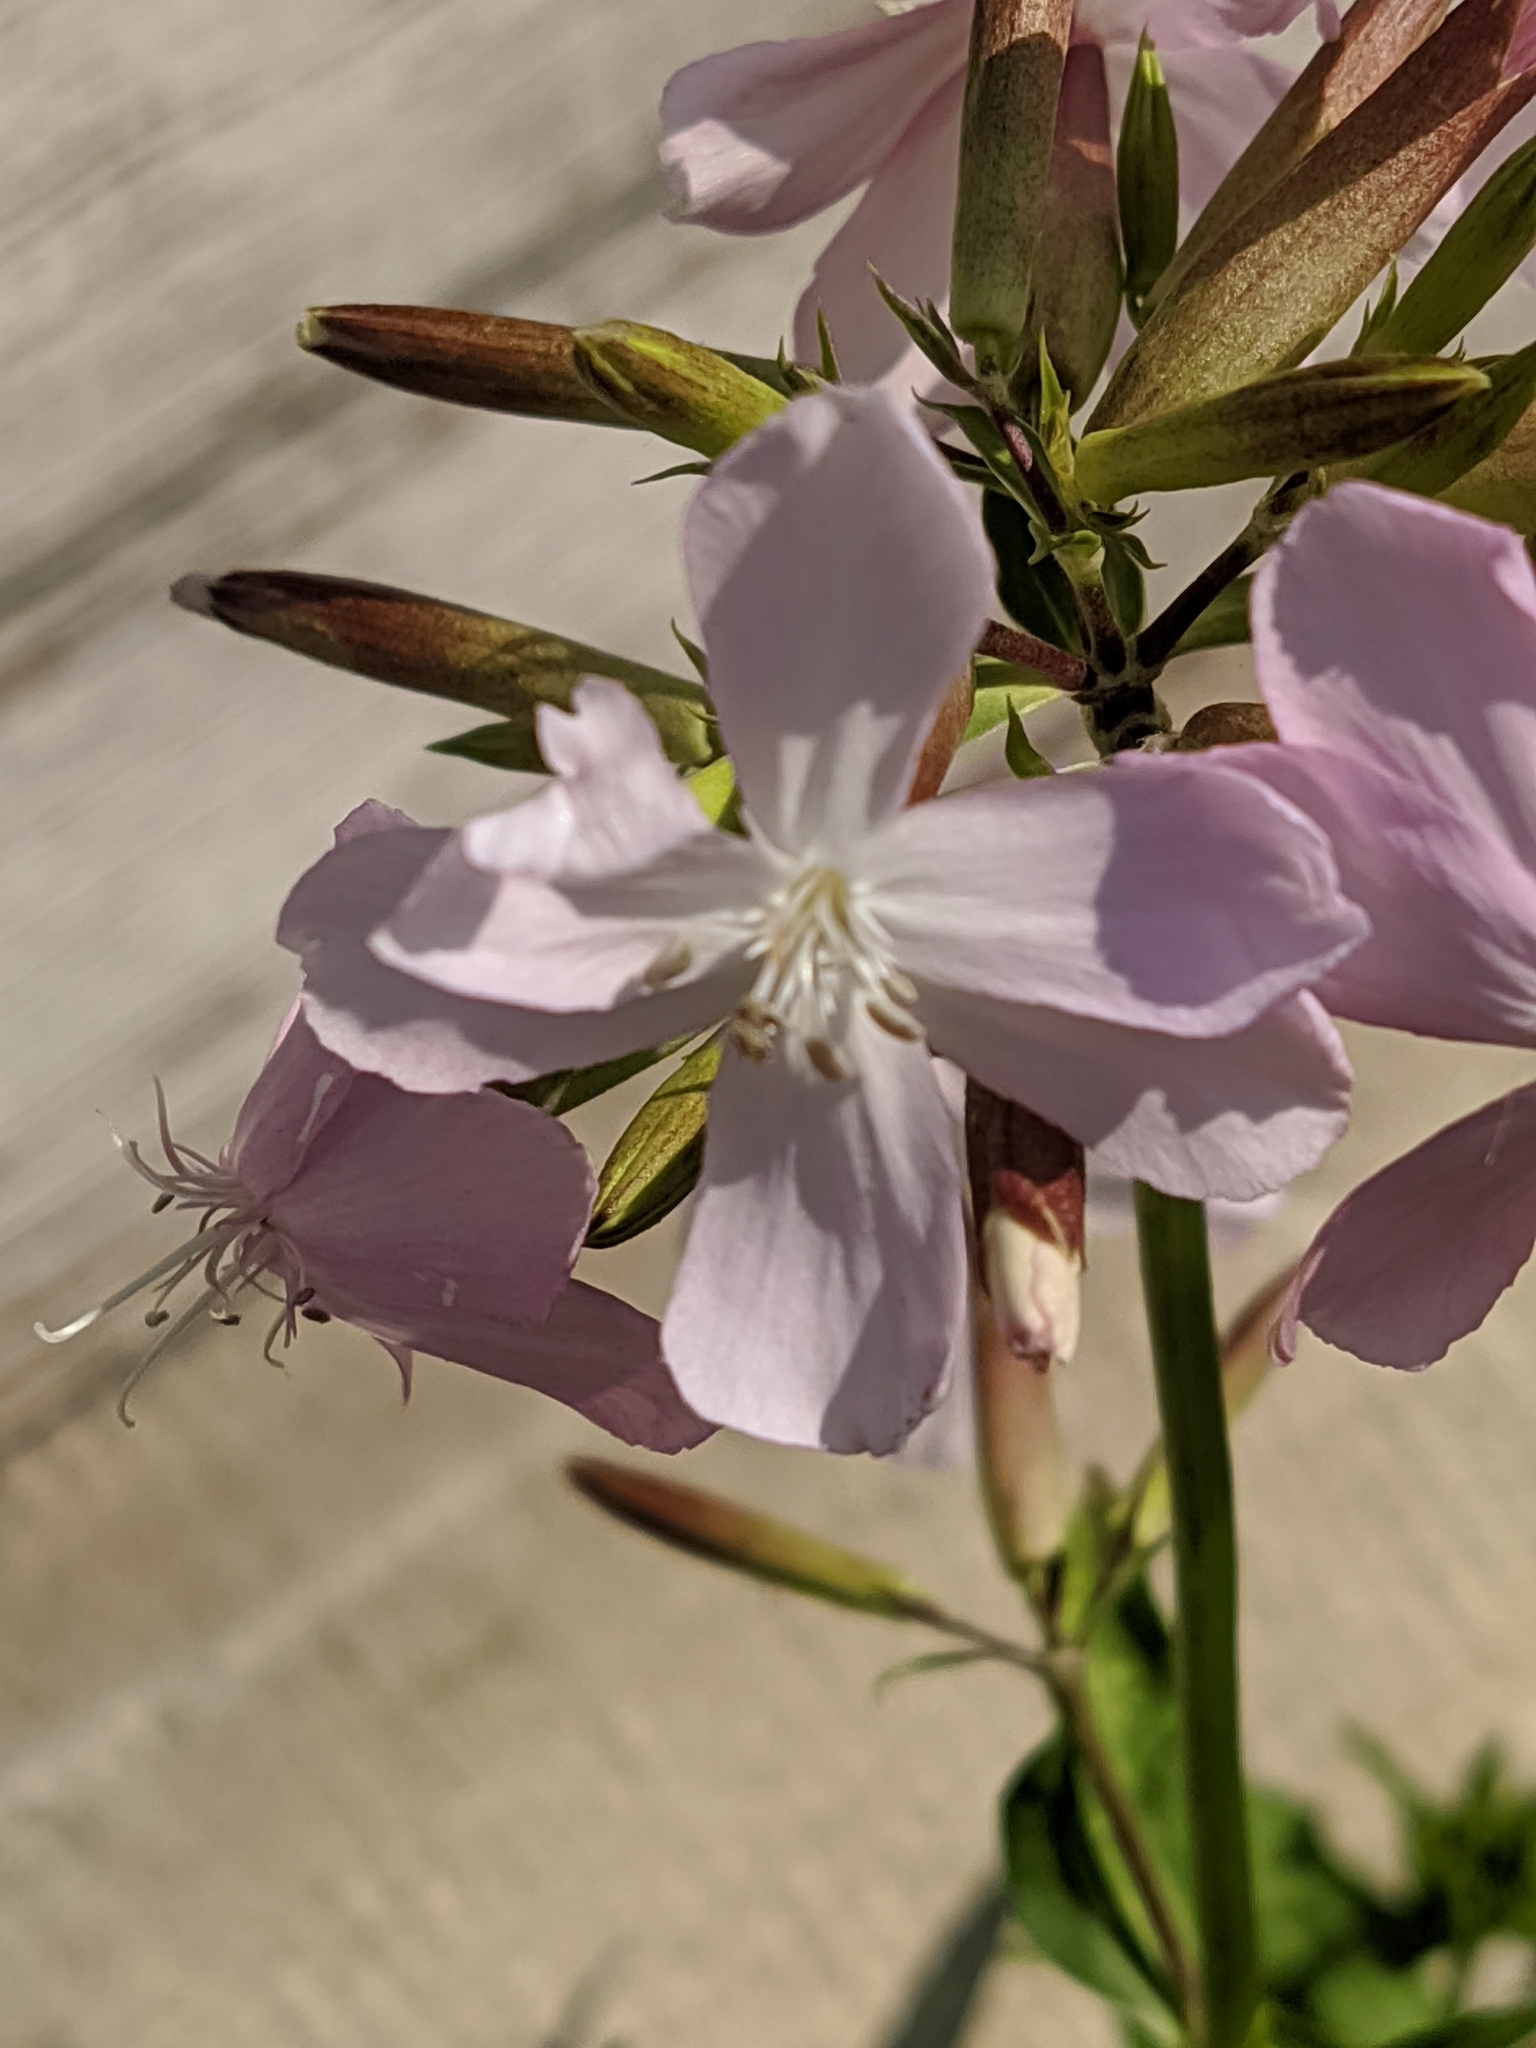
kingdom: Plantae
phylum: Tracheophyta
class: Magnoliopsida
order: Caryophyllales
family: Caryophyllaceae
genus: Saponaria
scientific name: Saponaria officinalis
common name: Soapwort
